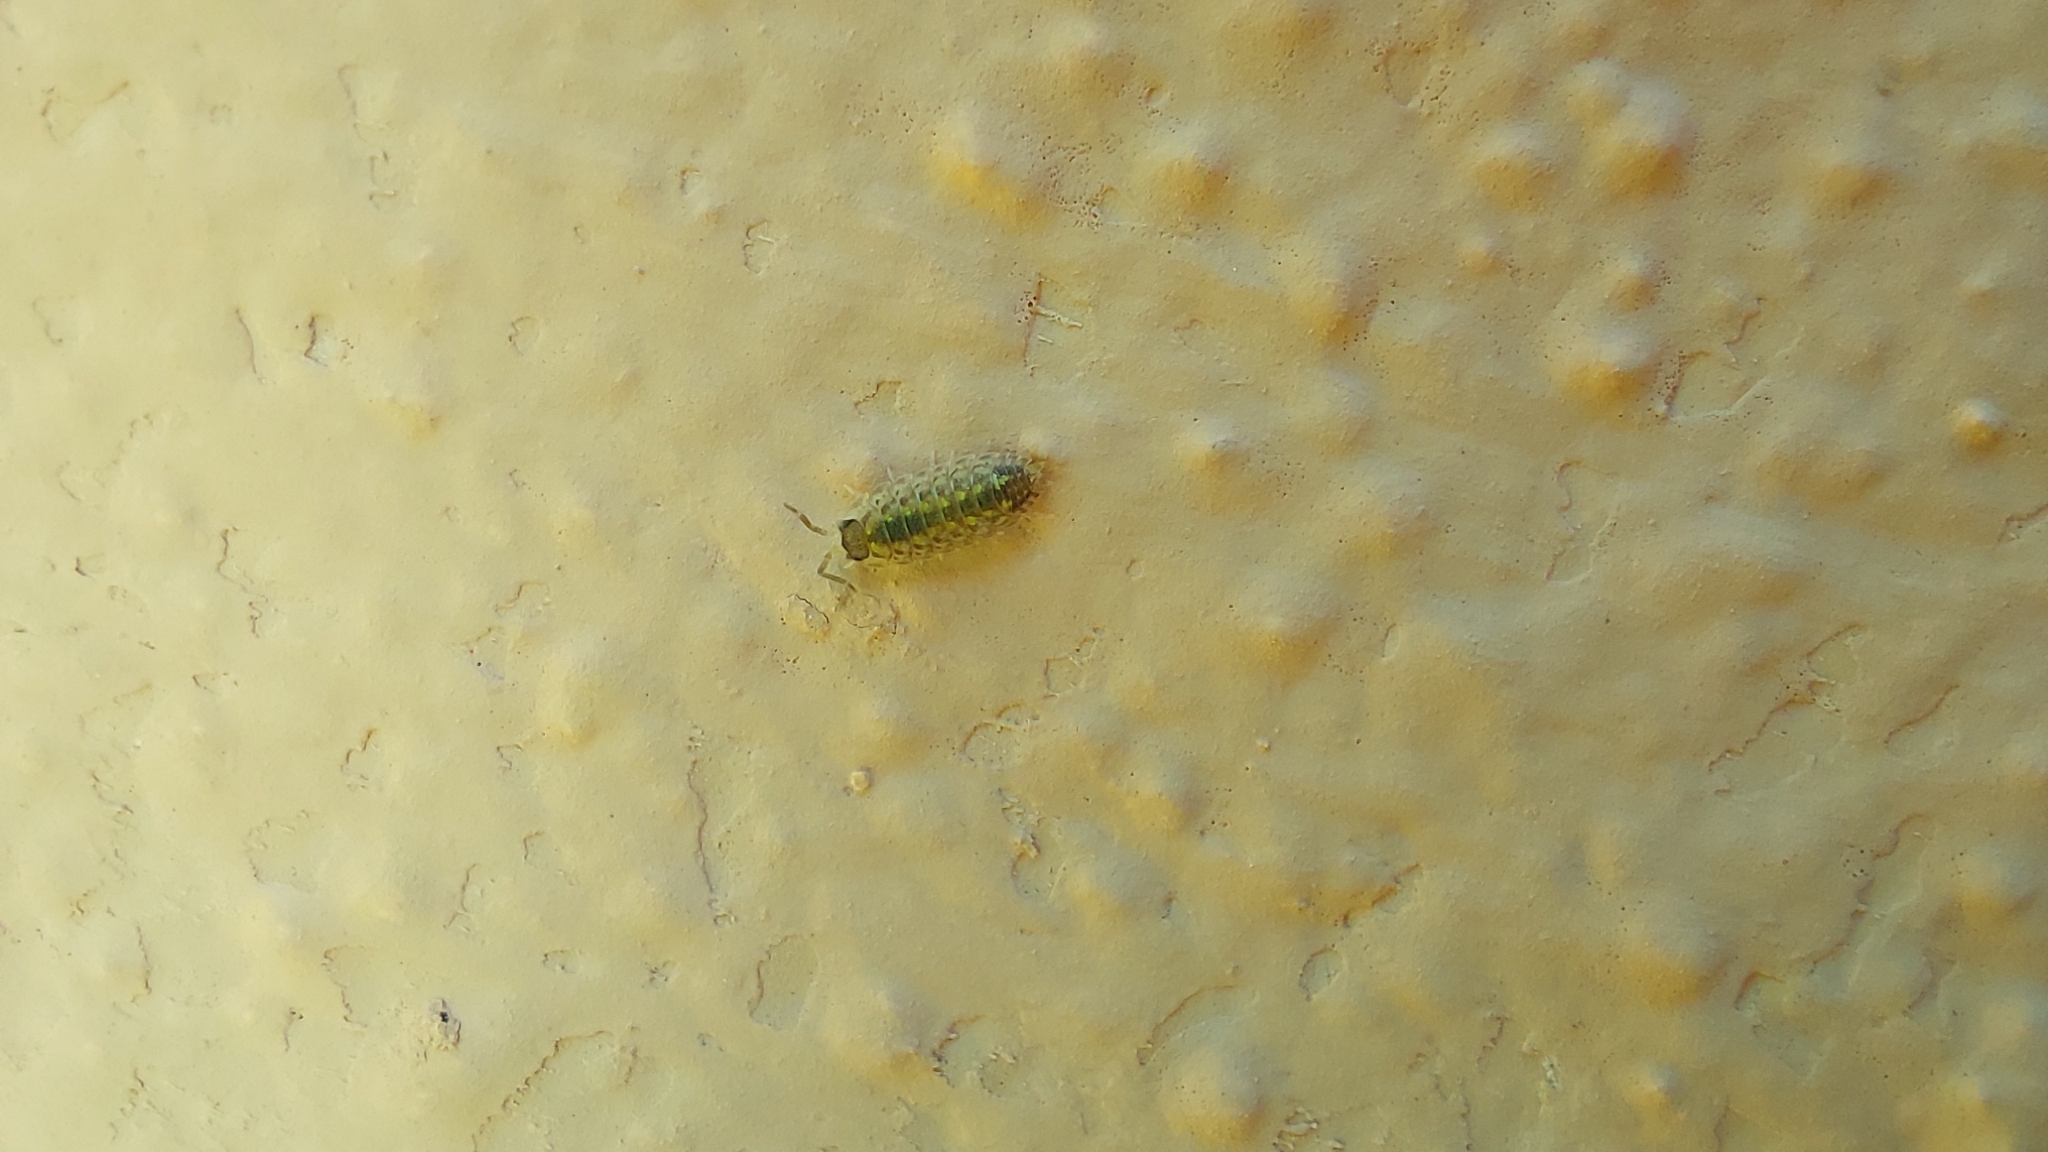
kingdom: Animalia
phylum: Arthropoda
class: Malacostraca
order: Isopoda
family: Porcellionidae
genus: Porcellio
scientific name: Porcellio spinicornis
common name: Painted woodlouse
